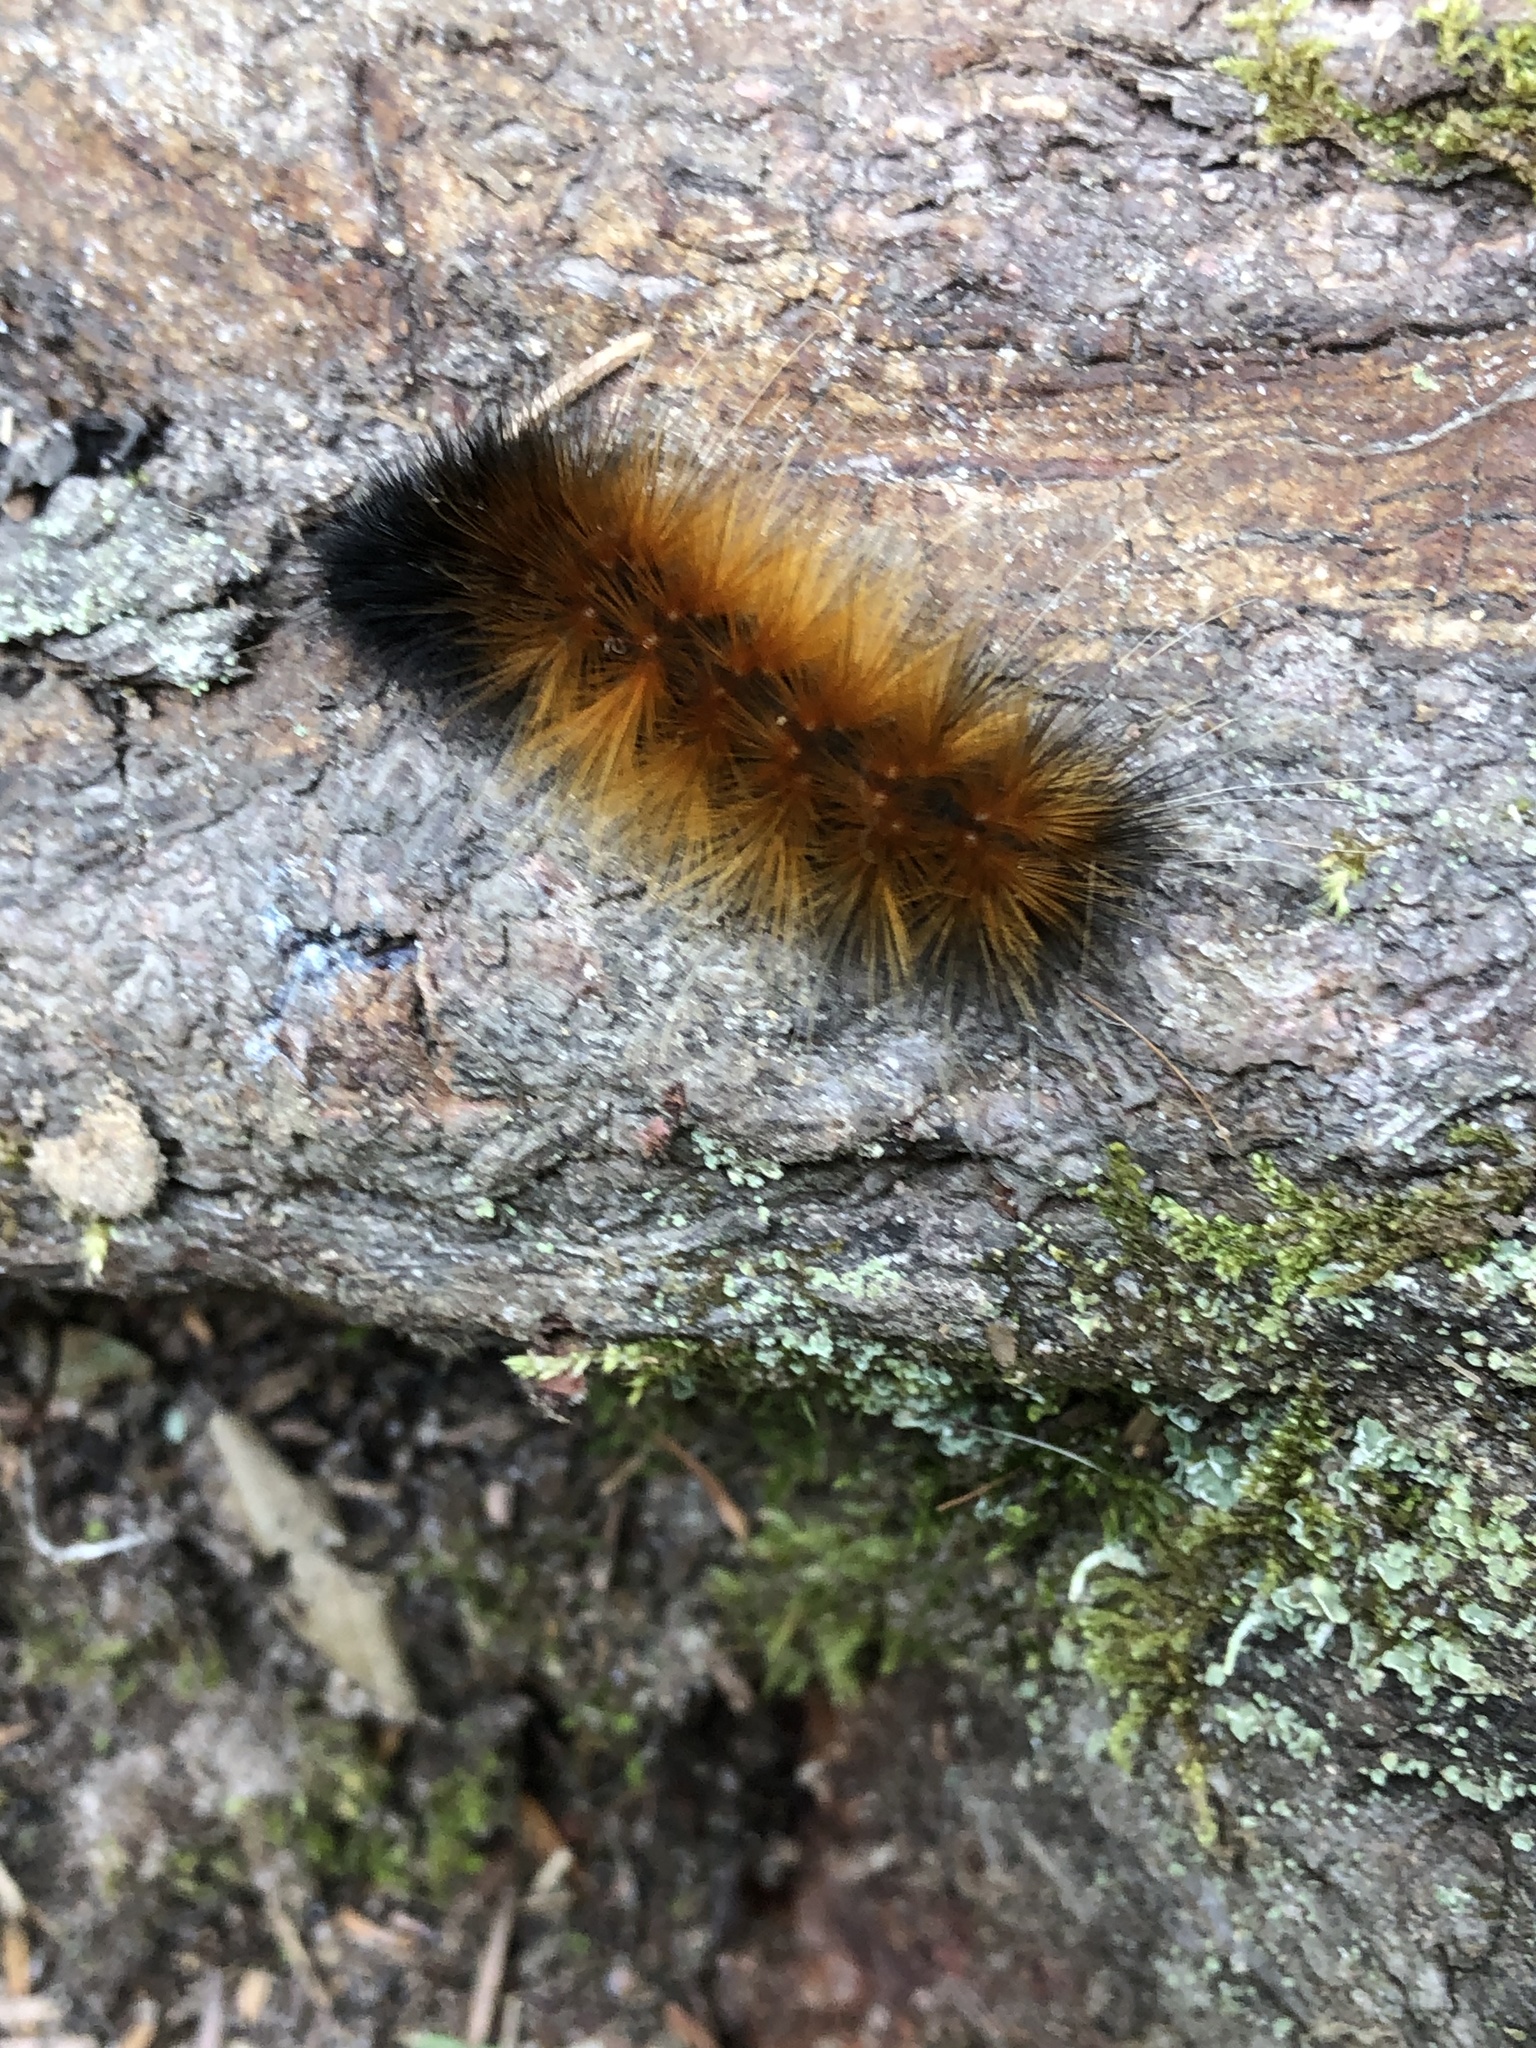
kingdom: Animalia
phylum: Arthropoda
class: Insecta
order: Lepidoptera
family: Erebidae
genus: Spilosoma
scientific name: Spilosoma virginica
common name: Virginia tiger moth
